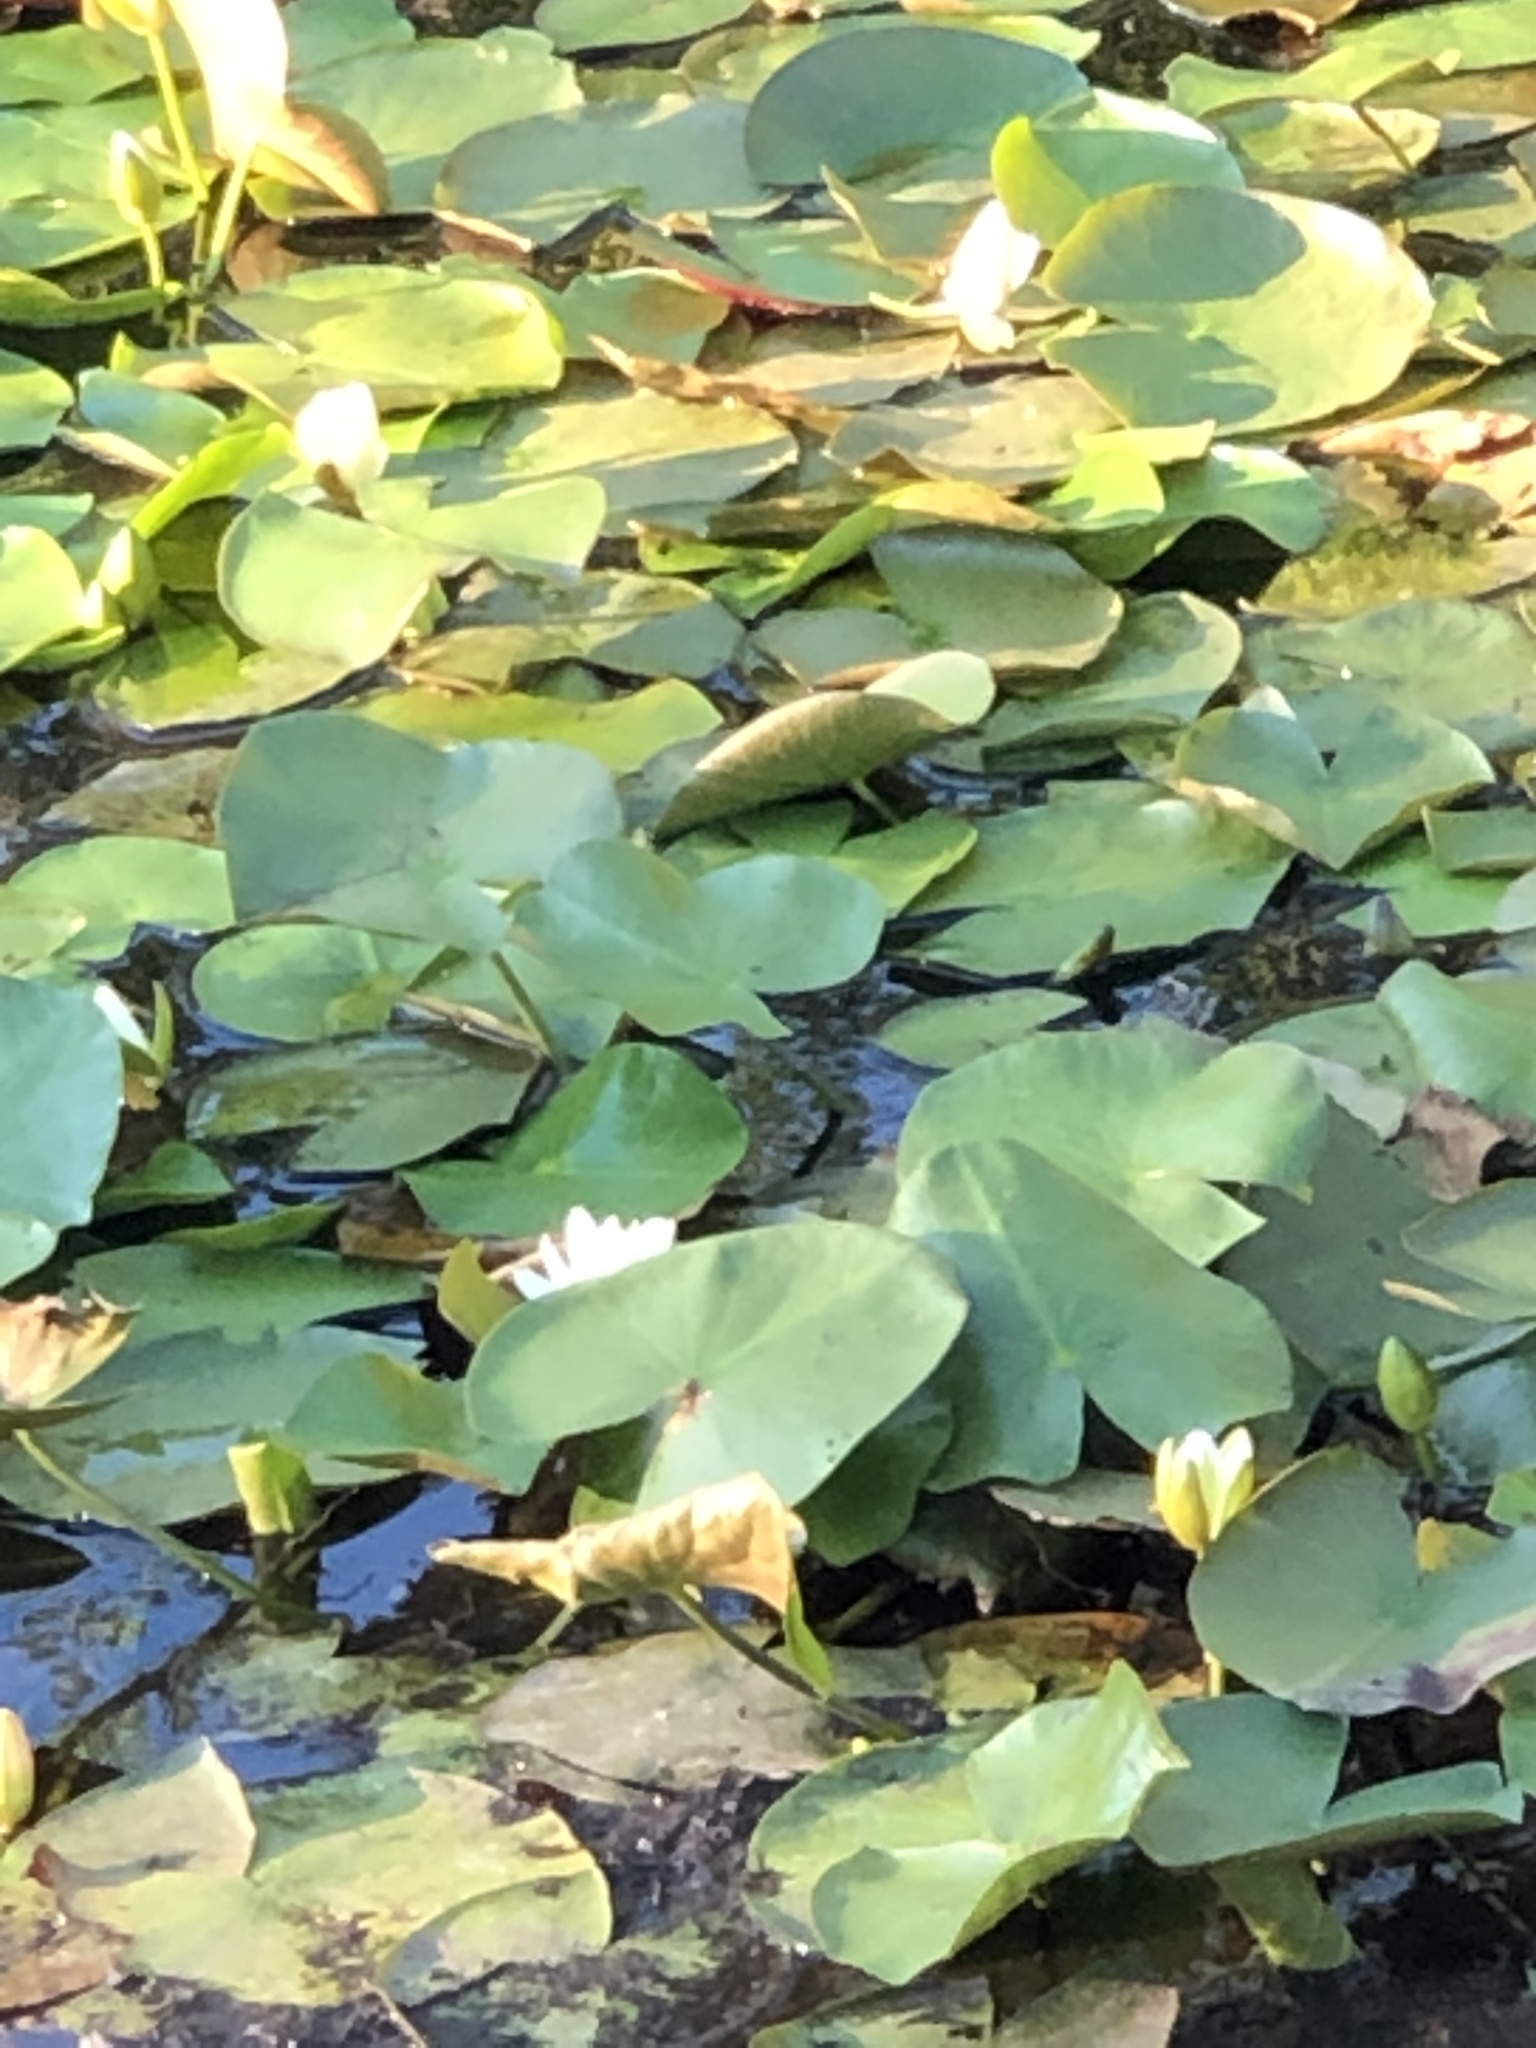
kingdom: Plantae
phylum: Tracheophyta
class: Magnoliopsida
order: Nymphaeales
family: Nymphaeaceae
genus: Nymphaea
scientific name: Nymphaea odorata
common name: Fragrant water-lily
